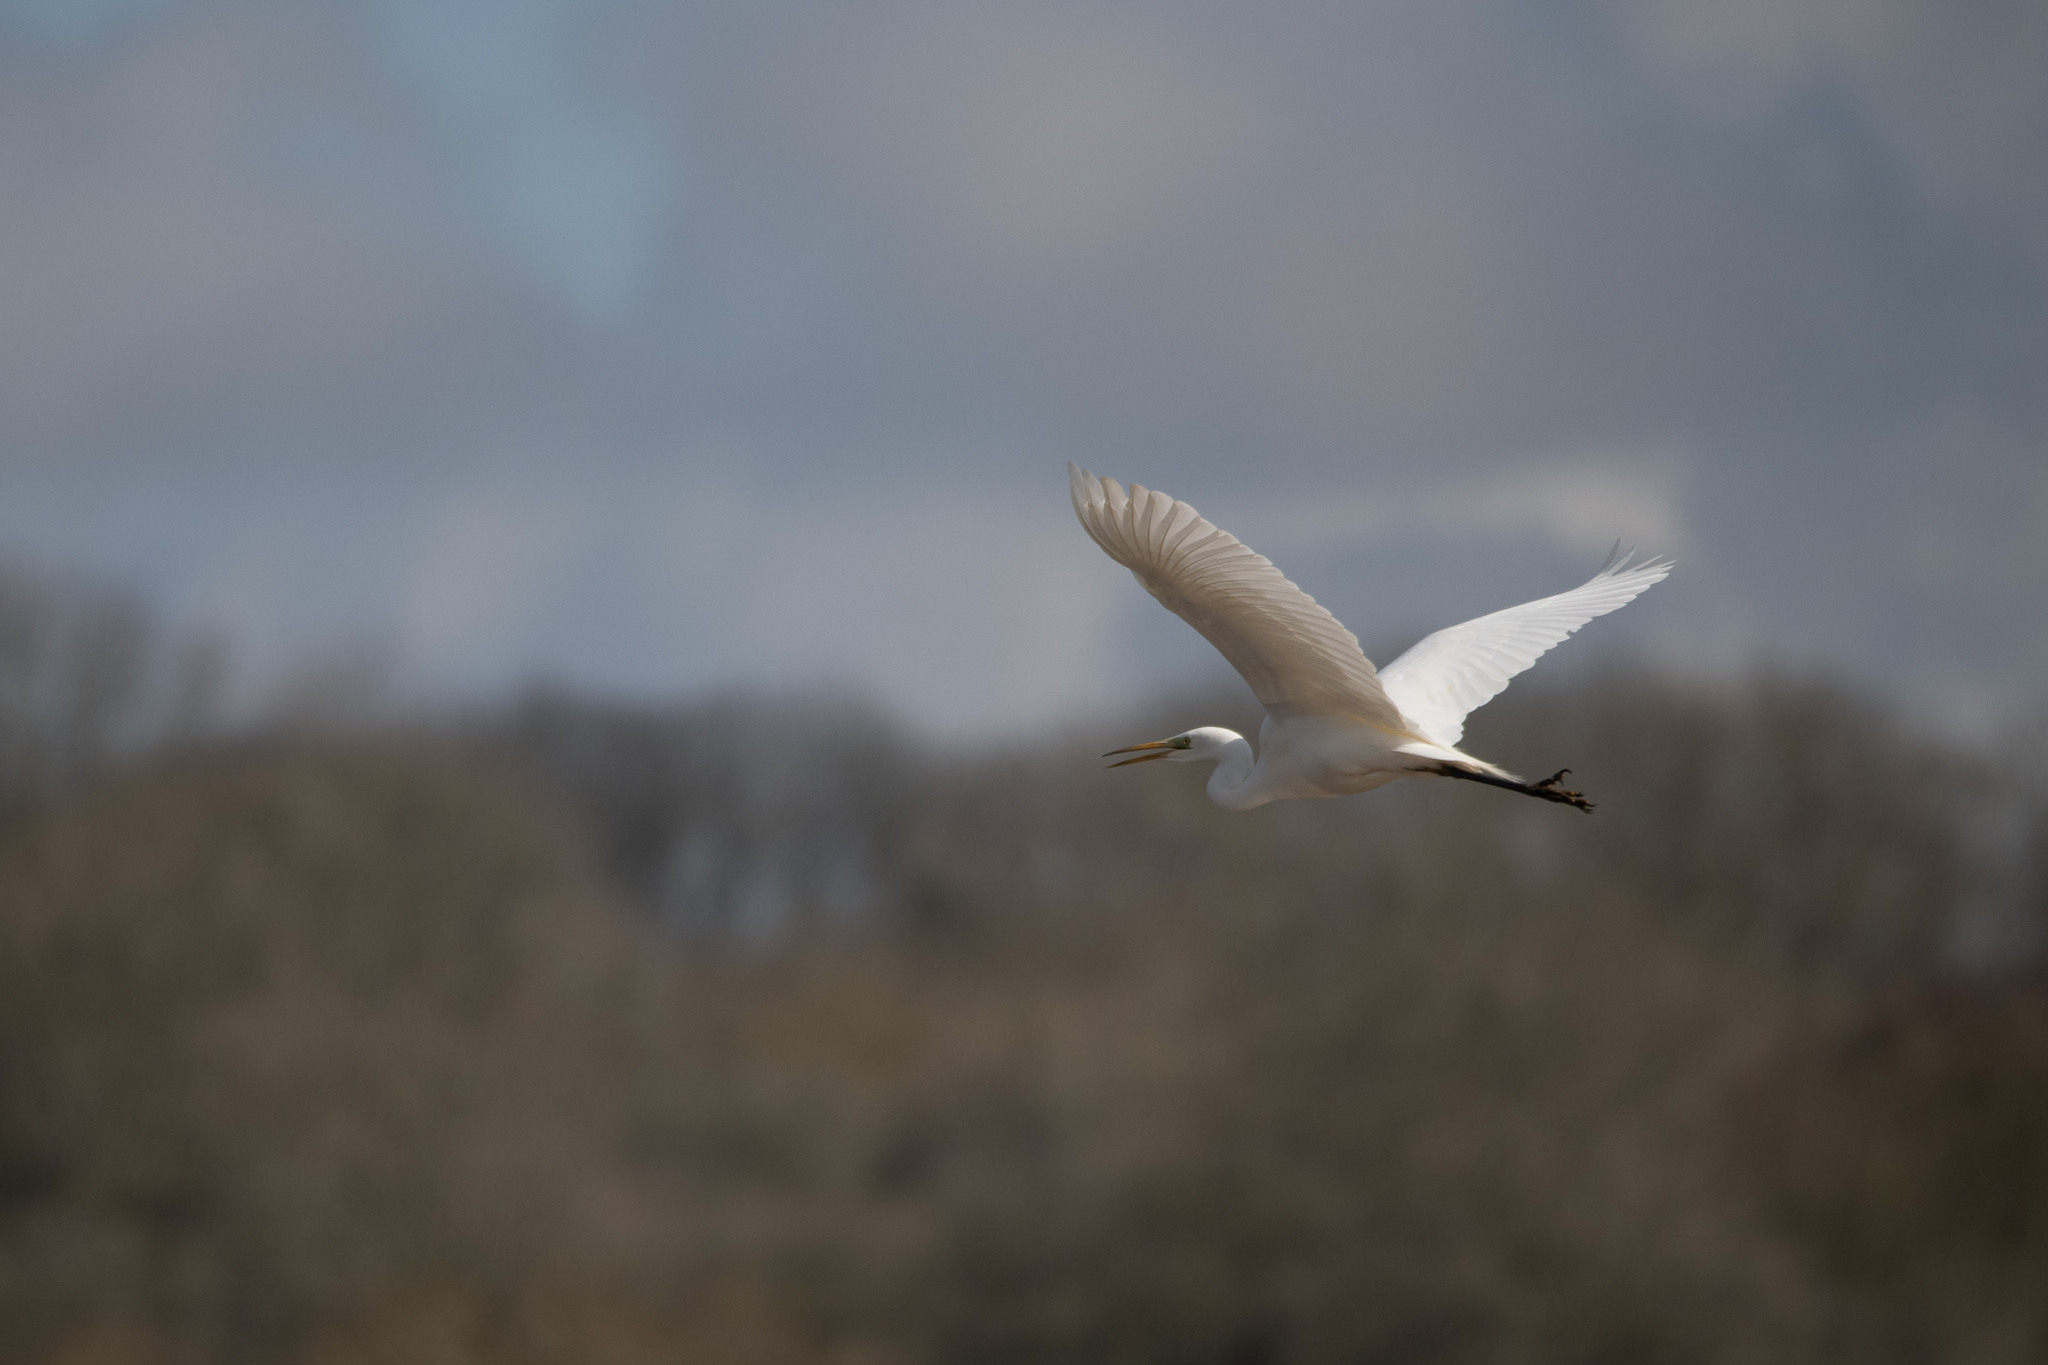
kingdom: Animalia
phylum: Chordata
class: Aves
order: Pelecaniformes
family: Ardeidae
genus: Ardea
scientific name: Ardea alba
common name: Great egret
